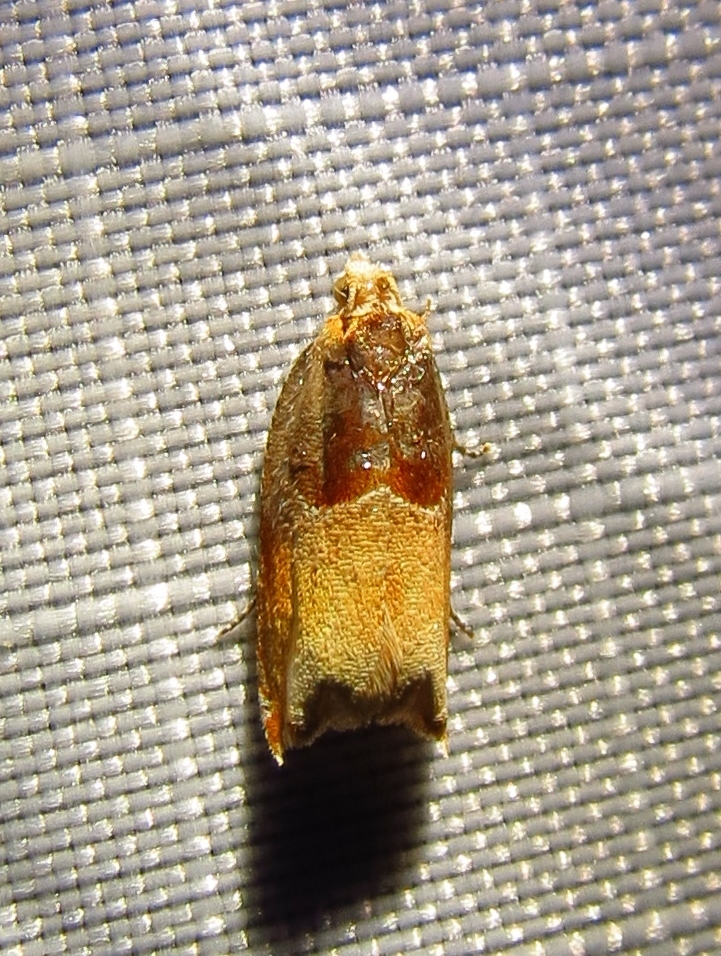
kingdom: Animalia
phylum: Arthropoda
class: Insecta
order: Lepidoptera
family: Tortricidae
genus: Ancylis
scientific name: Ancylis divisana
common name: Two-toned ancylis moth
